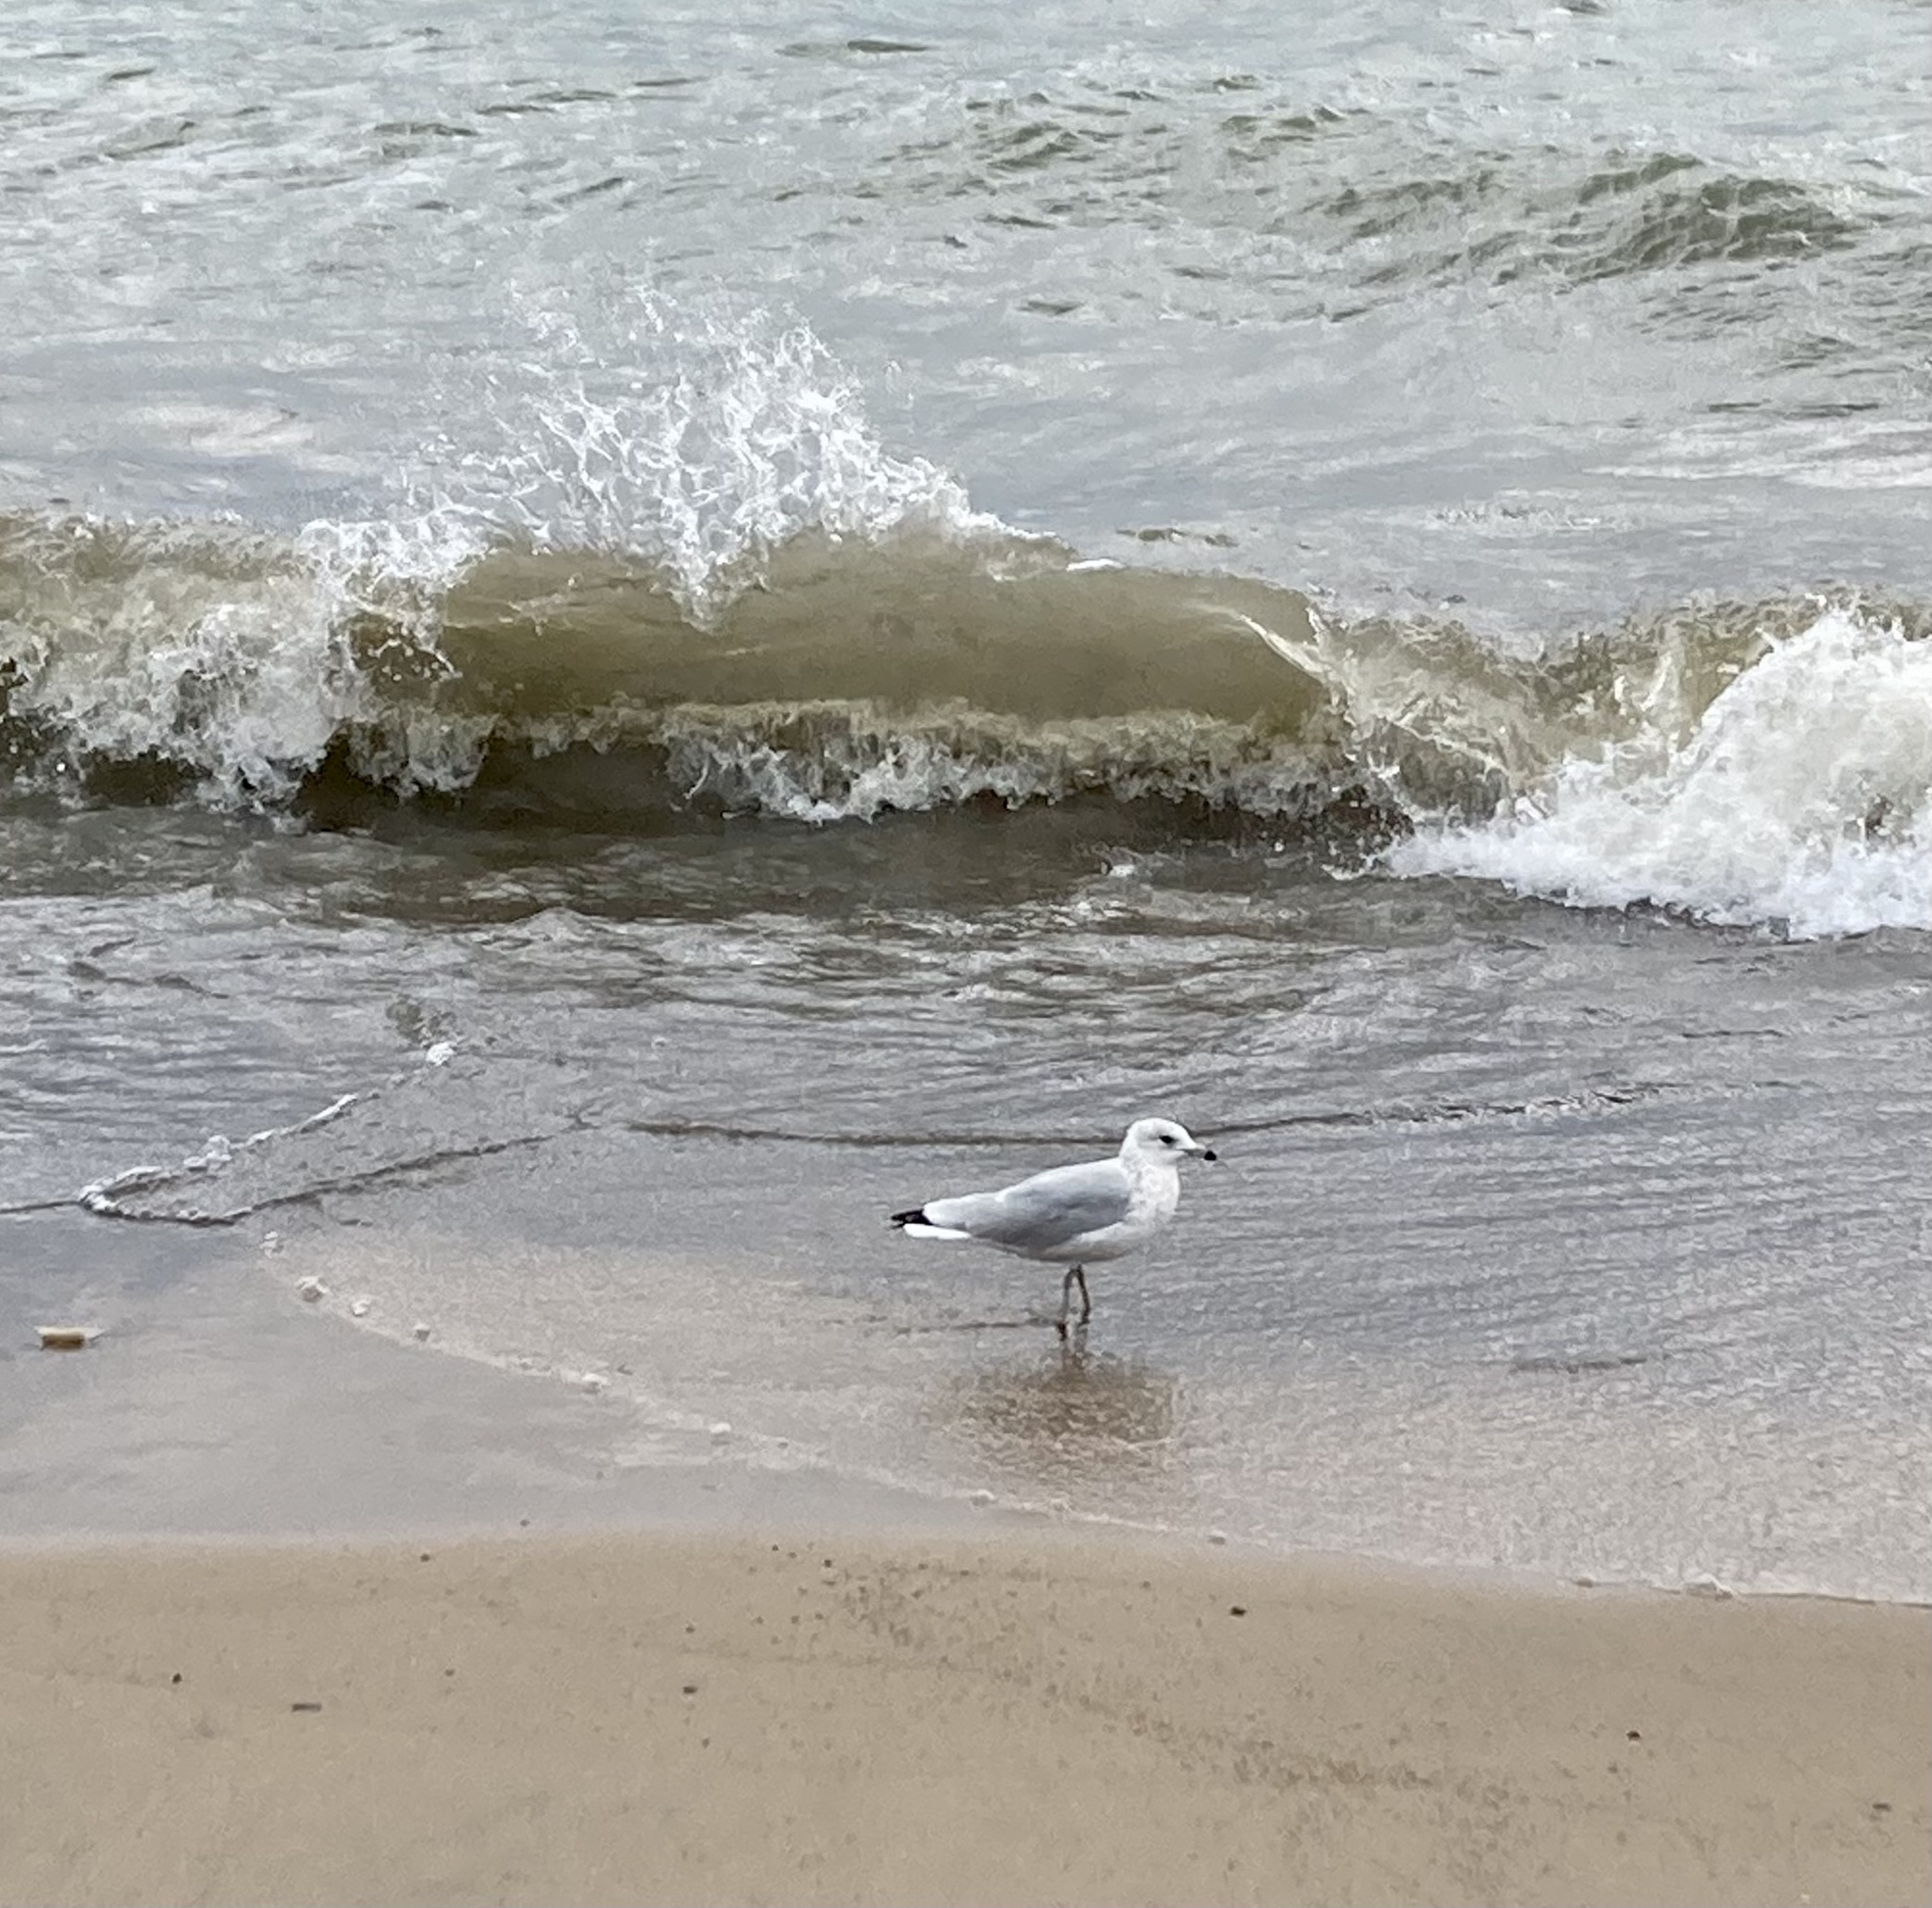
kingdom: Animalia
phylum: Chordata
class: Aves
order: Charadriiformes
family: Laridae
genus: Larus
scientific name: Larus delawarensis
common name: Ring-billed gull
